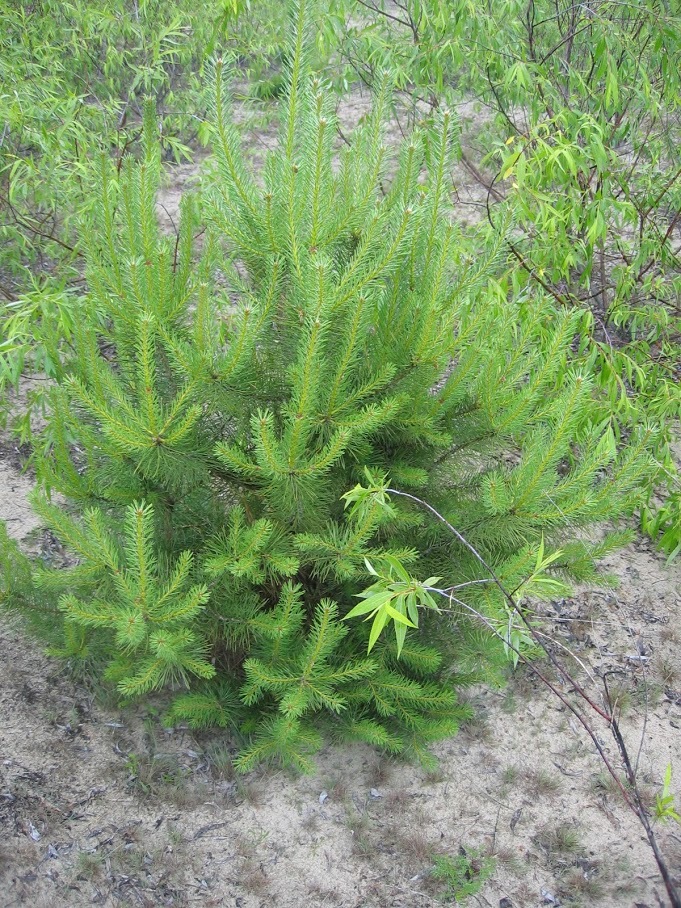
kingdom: Plantae
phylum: Tracheophyta
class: Pinopsida
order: Pinales
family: Pinaceae
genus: Pinus
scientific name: Pinus sylvestris
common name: Scots pine
